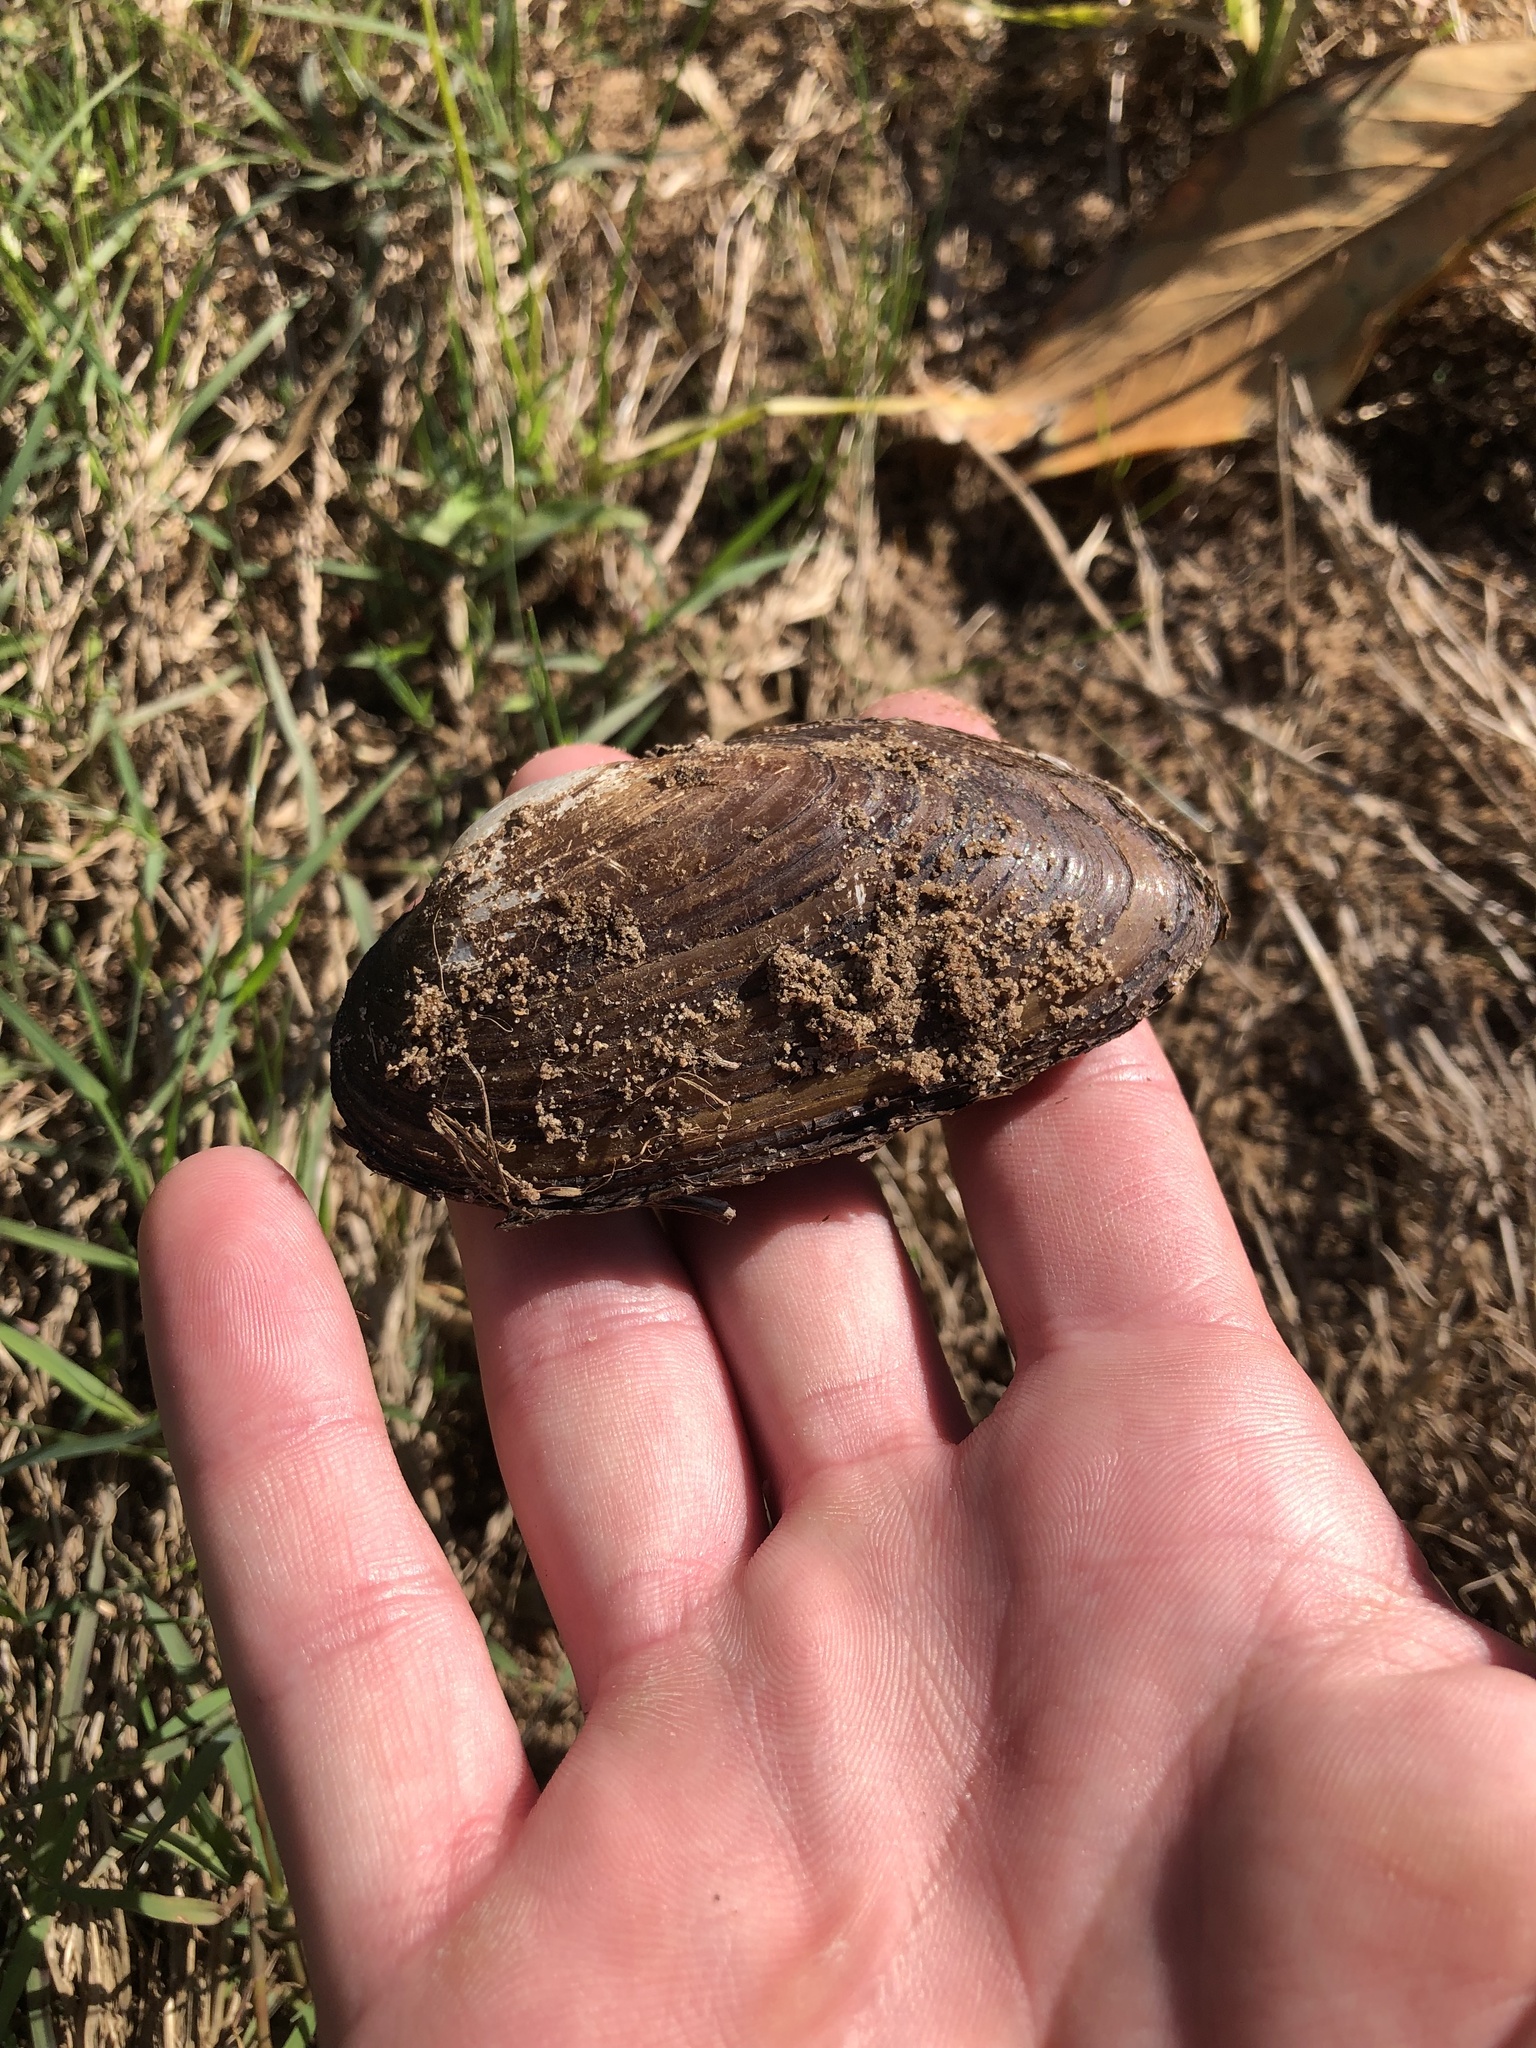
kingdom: Animalia
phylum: Mollusca
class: Bivalvia
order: Unionida
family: Unionidae
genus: Uniomerus
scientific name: Uniomerus tetralasmus
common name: Pondhorn
